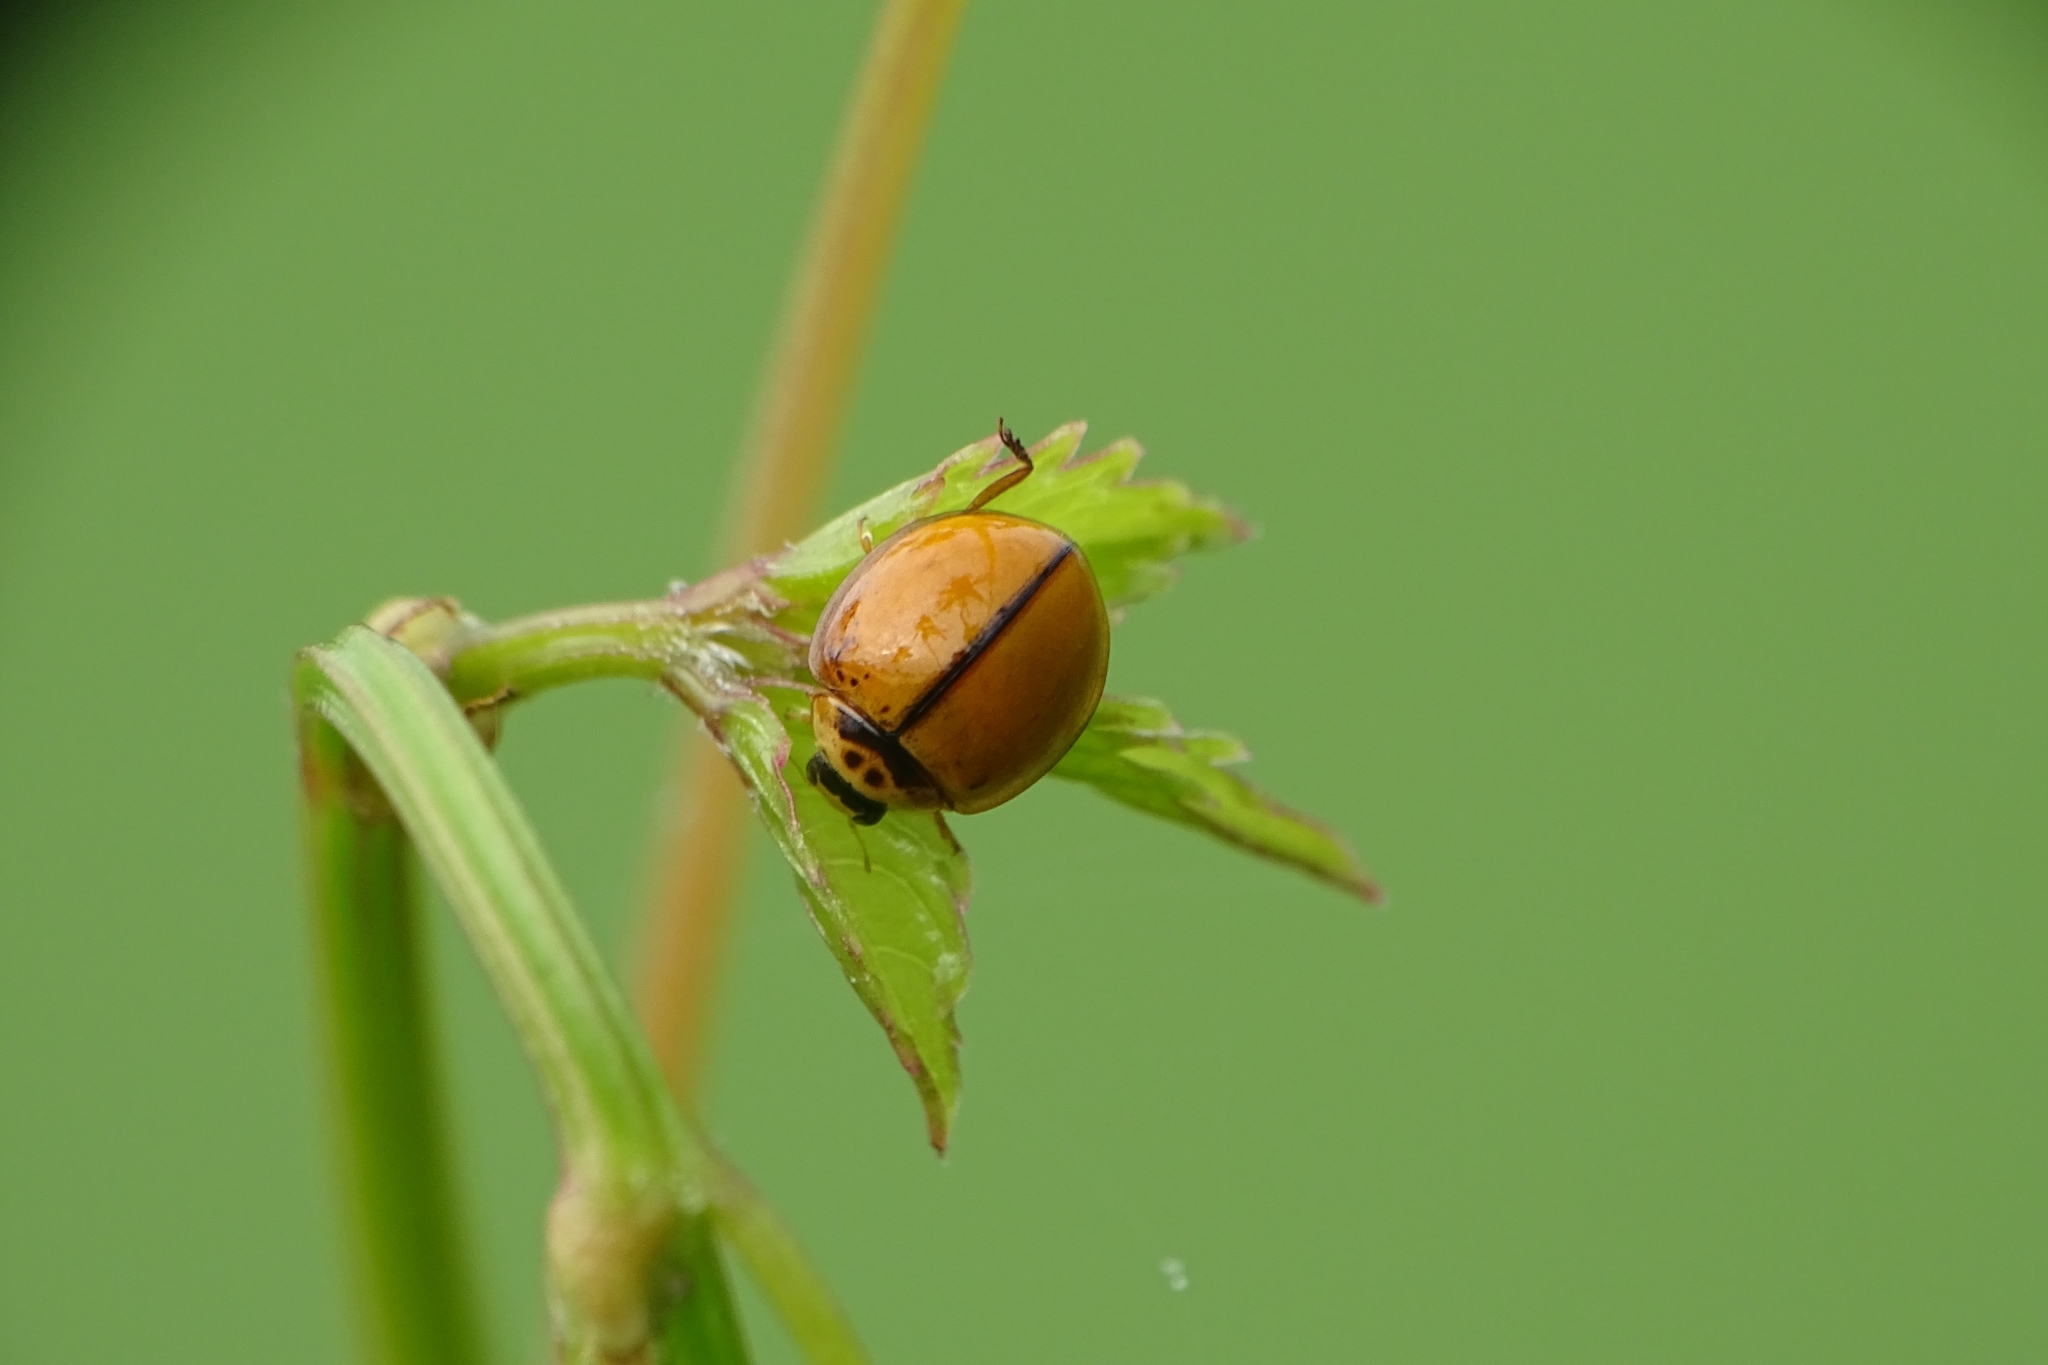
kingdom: Animalia
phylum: Arthropoda
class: Insecta
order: Coleoptera
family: Coccinellidae
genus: Micraspis
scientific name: Micraspis
